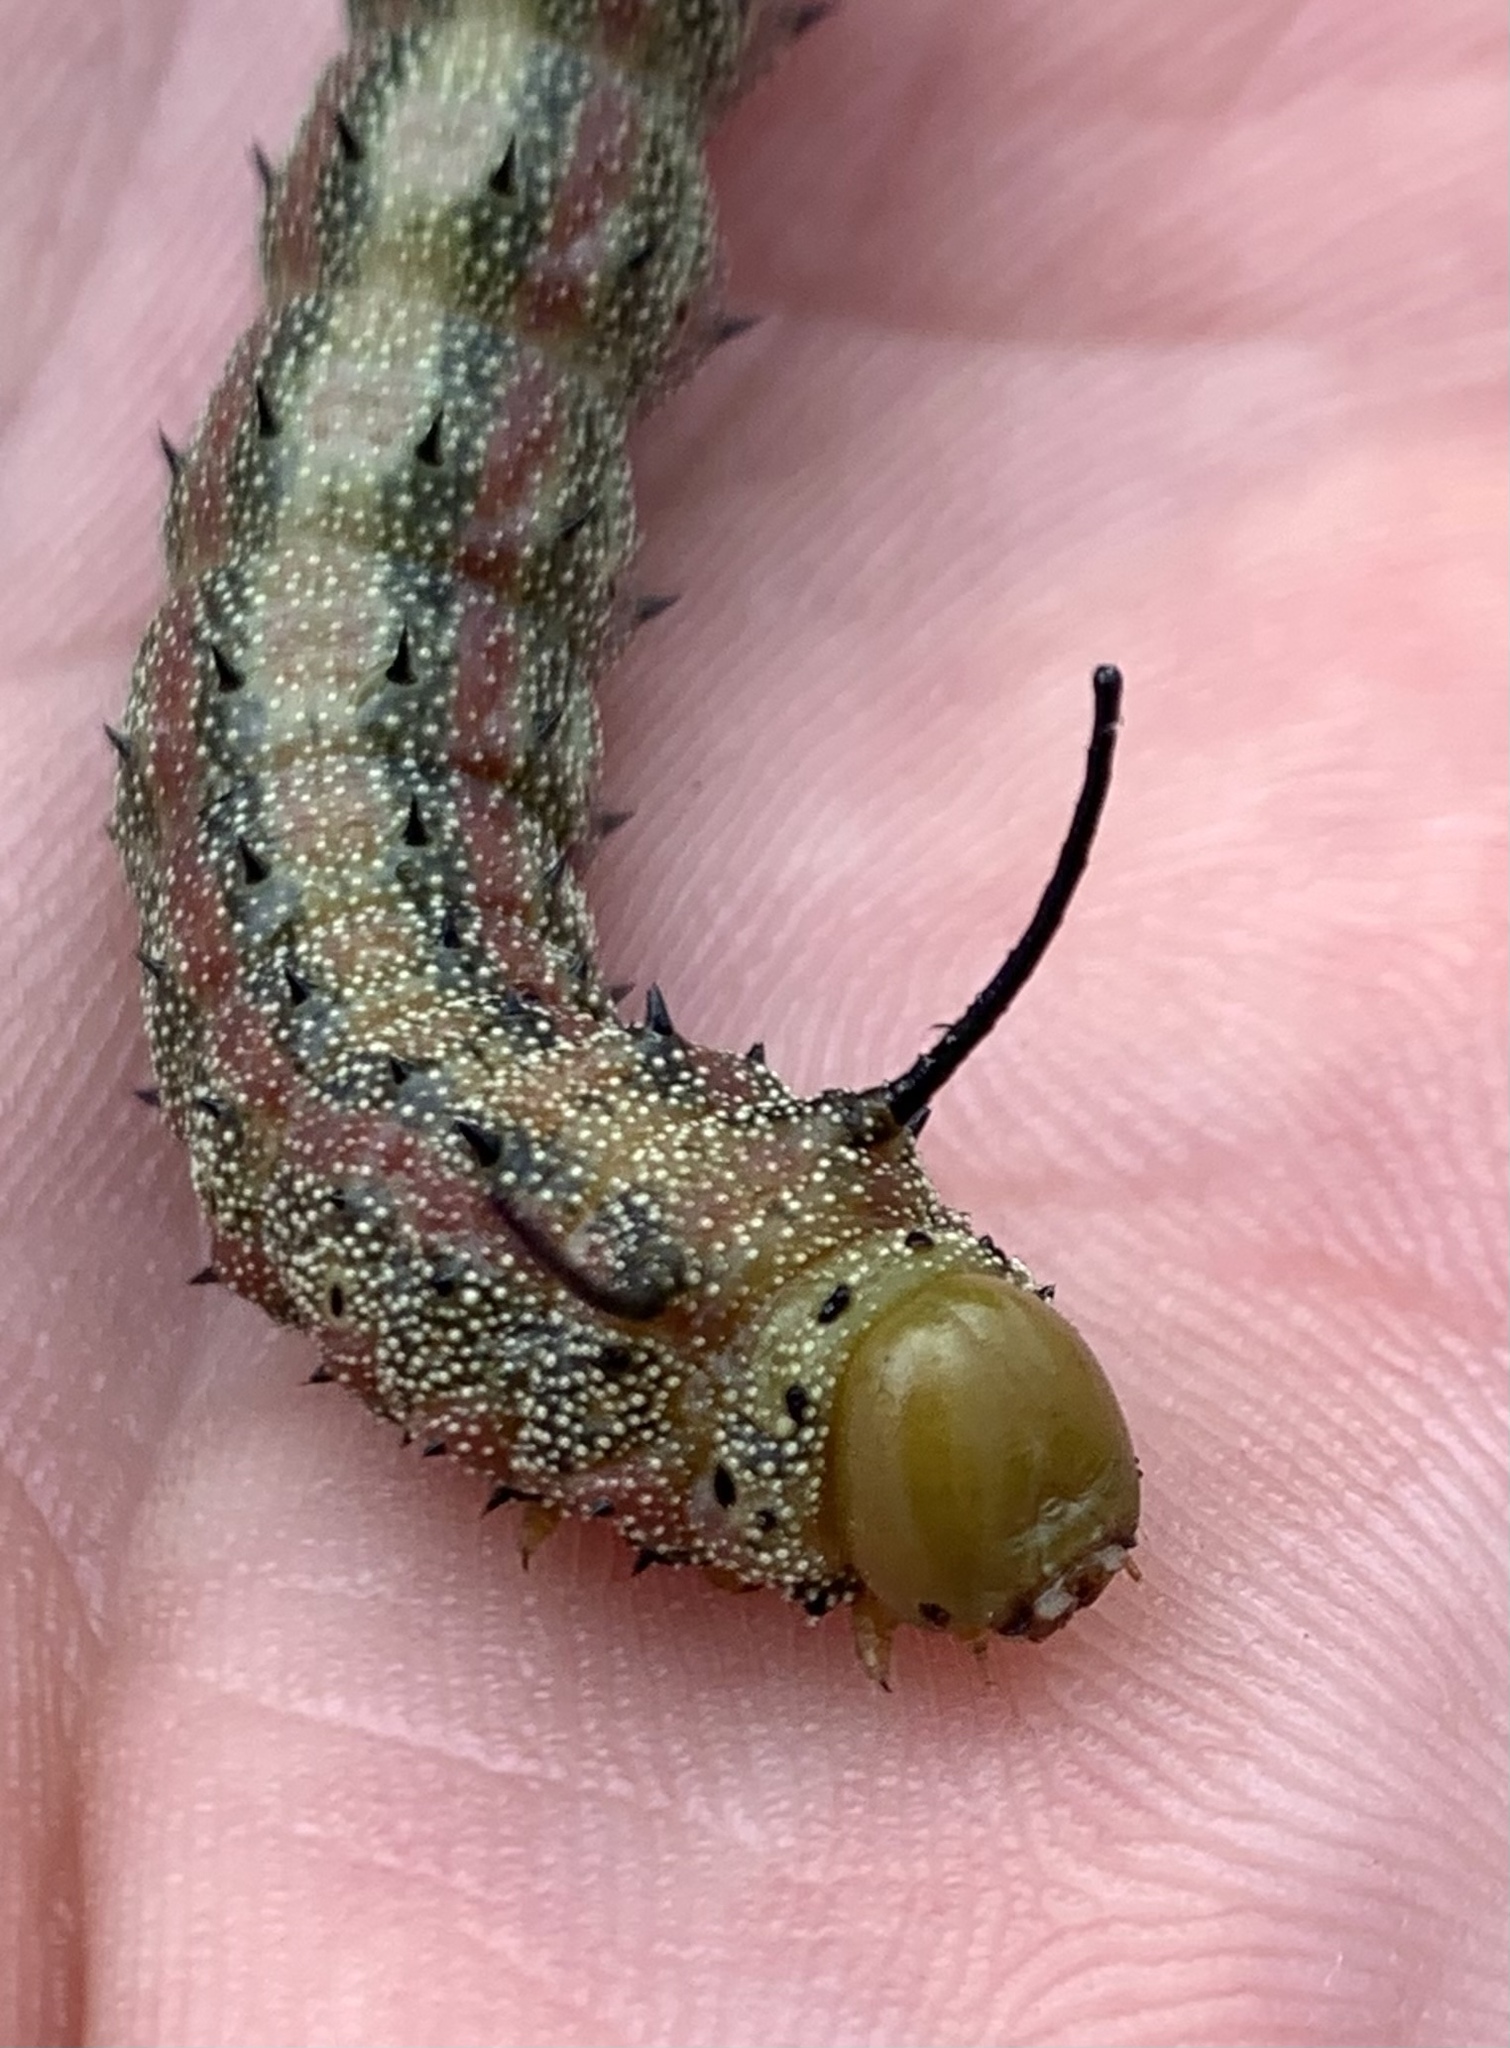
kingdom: Animalia
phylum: Arthropoda
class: Insecta
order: Lepidoptera
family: Saturniidae
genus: Anisota
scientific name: Anisota virginiensis
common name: Pink striped oakworm moth
